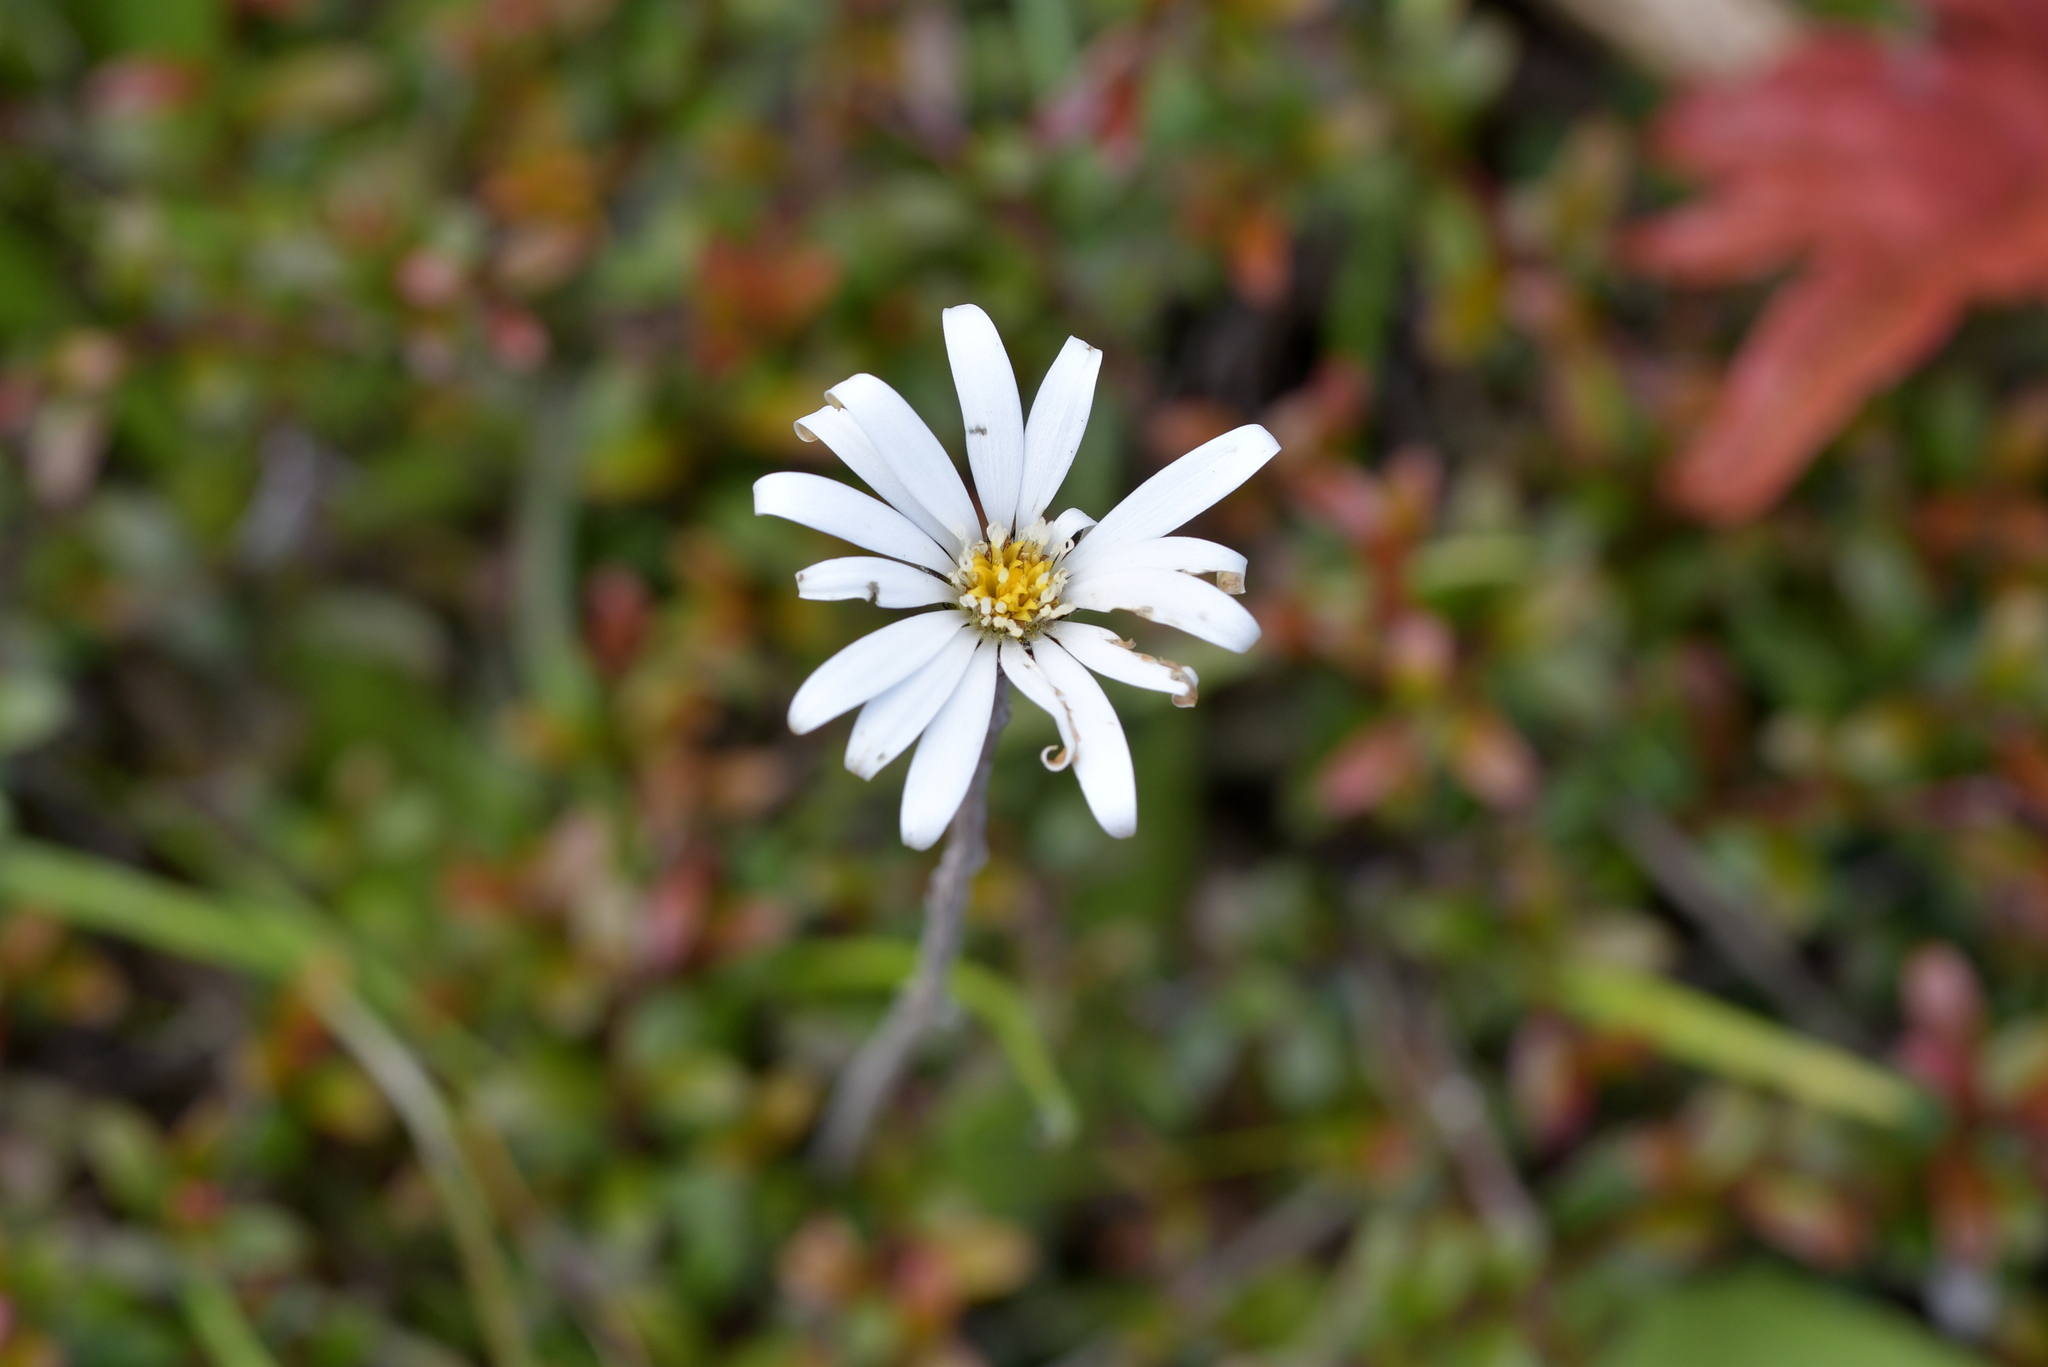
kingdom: Plantae
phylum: Tracheophyta
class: Magnoliopsida
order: Asterales
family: Asteraceae
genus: Celmisia
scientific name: Celmisia gracilenta
